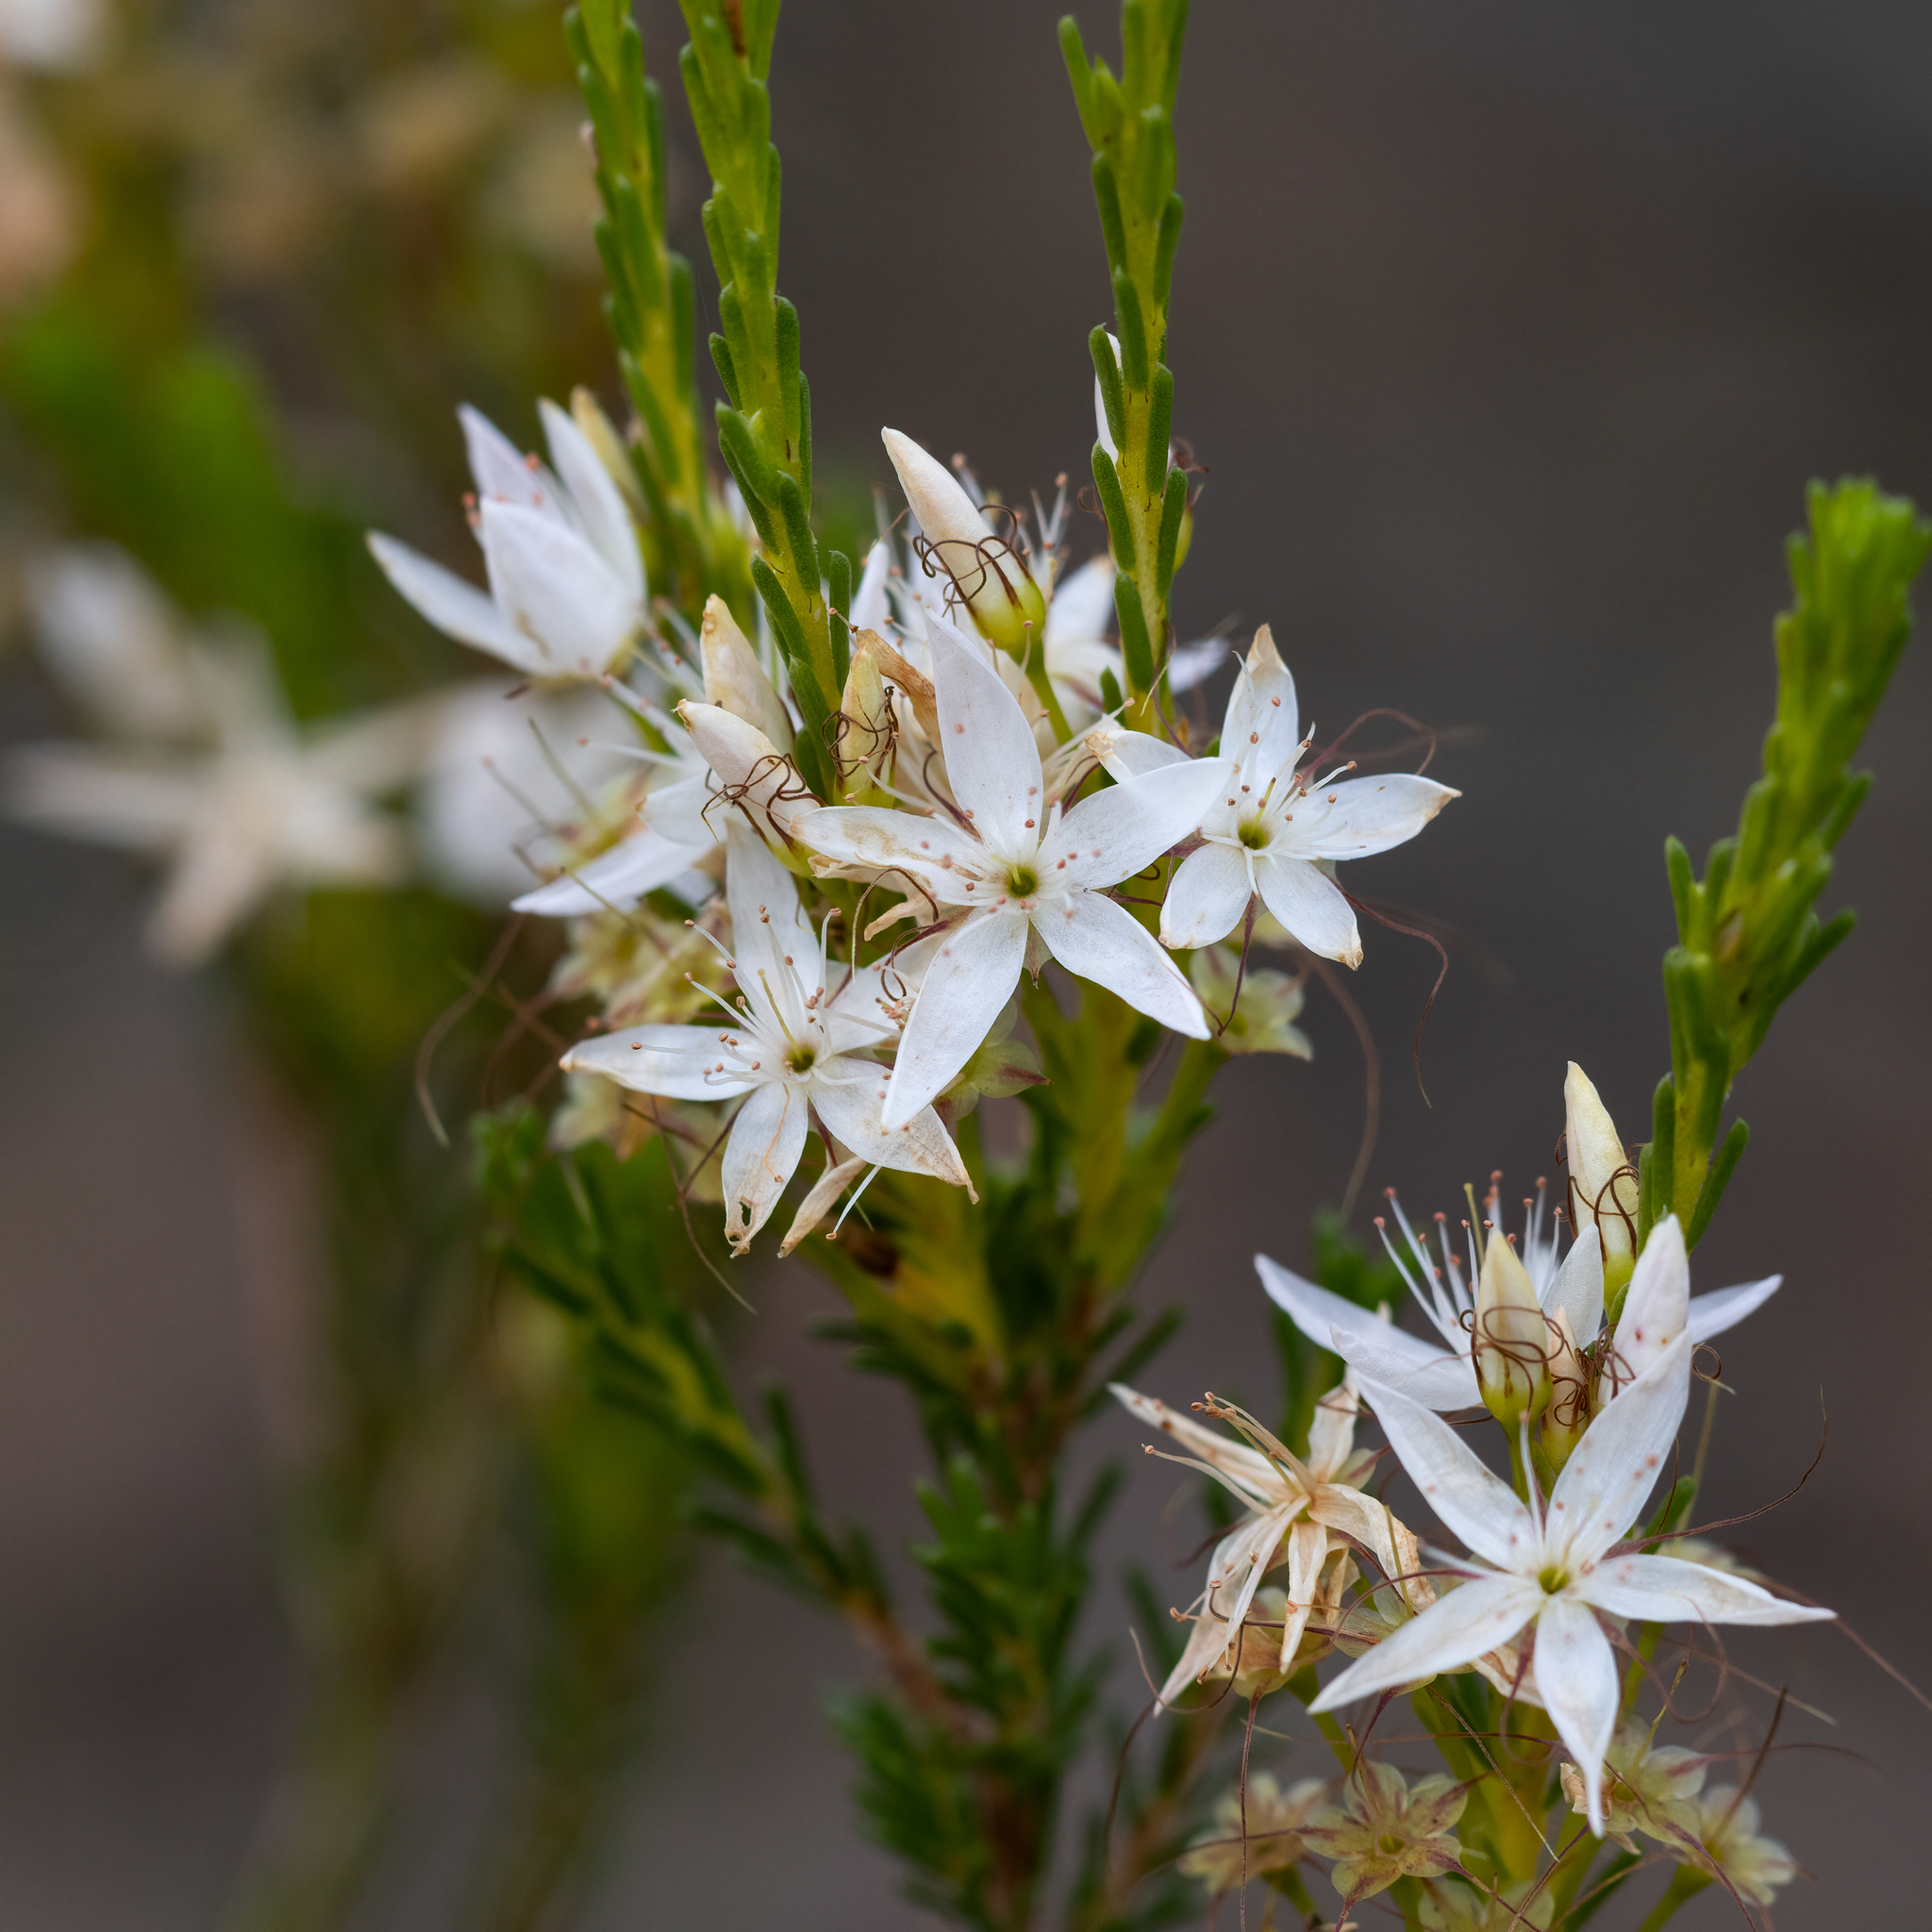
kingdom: Plantae
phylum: Tracheophyta
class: Magnoliopsida
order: Myrtales
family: Myrtaceae
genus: Calytrix
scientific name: Calytrix tetragona
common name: Common fringe myrtle
